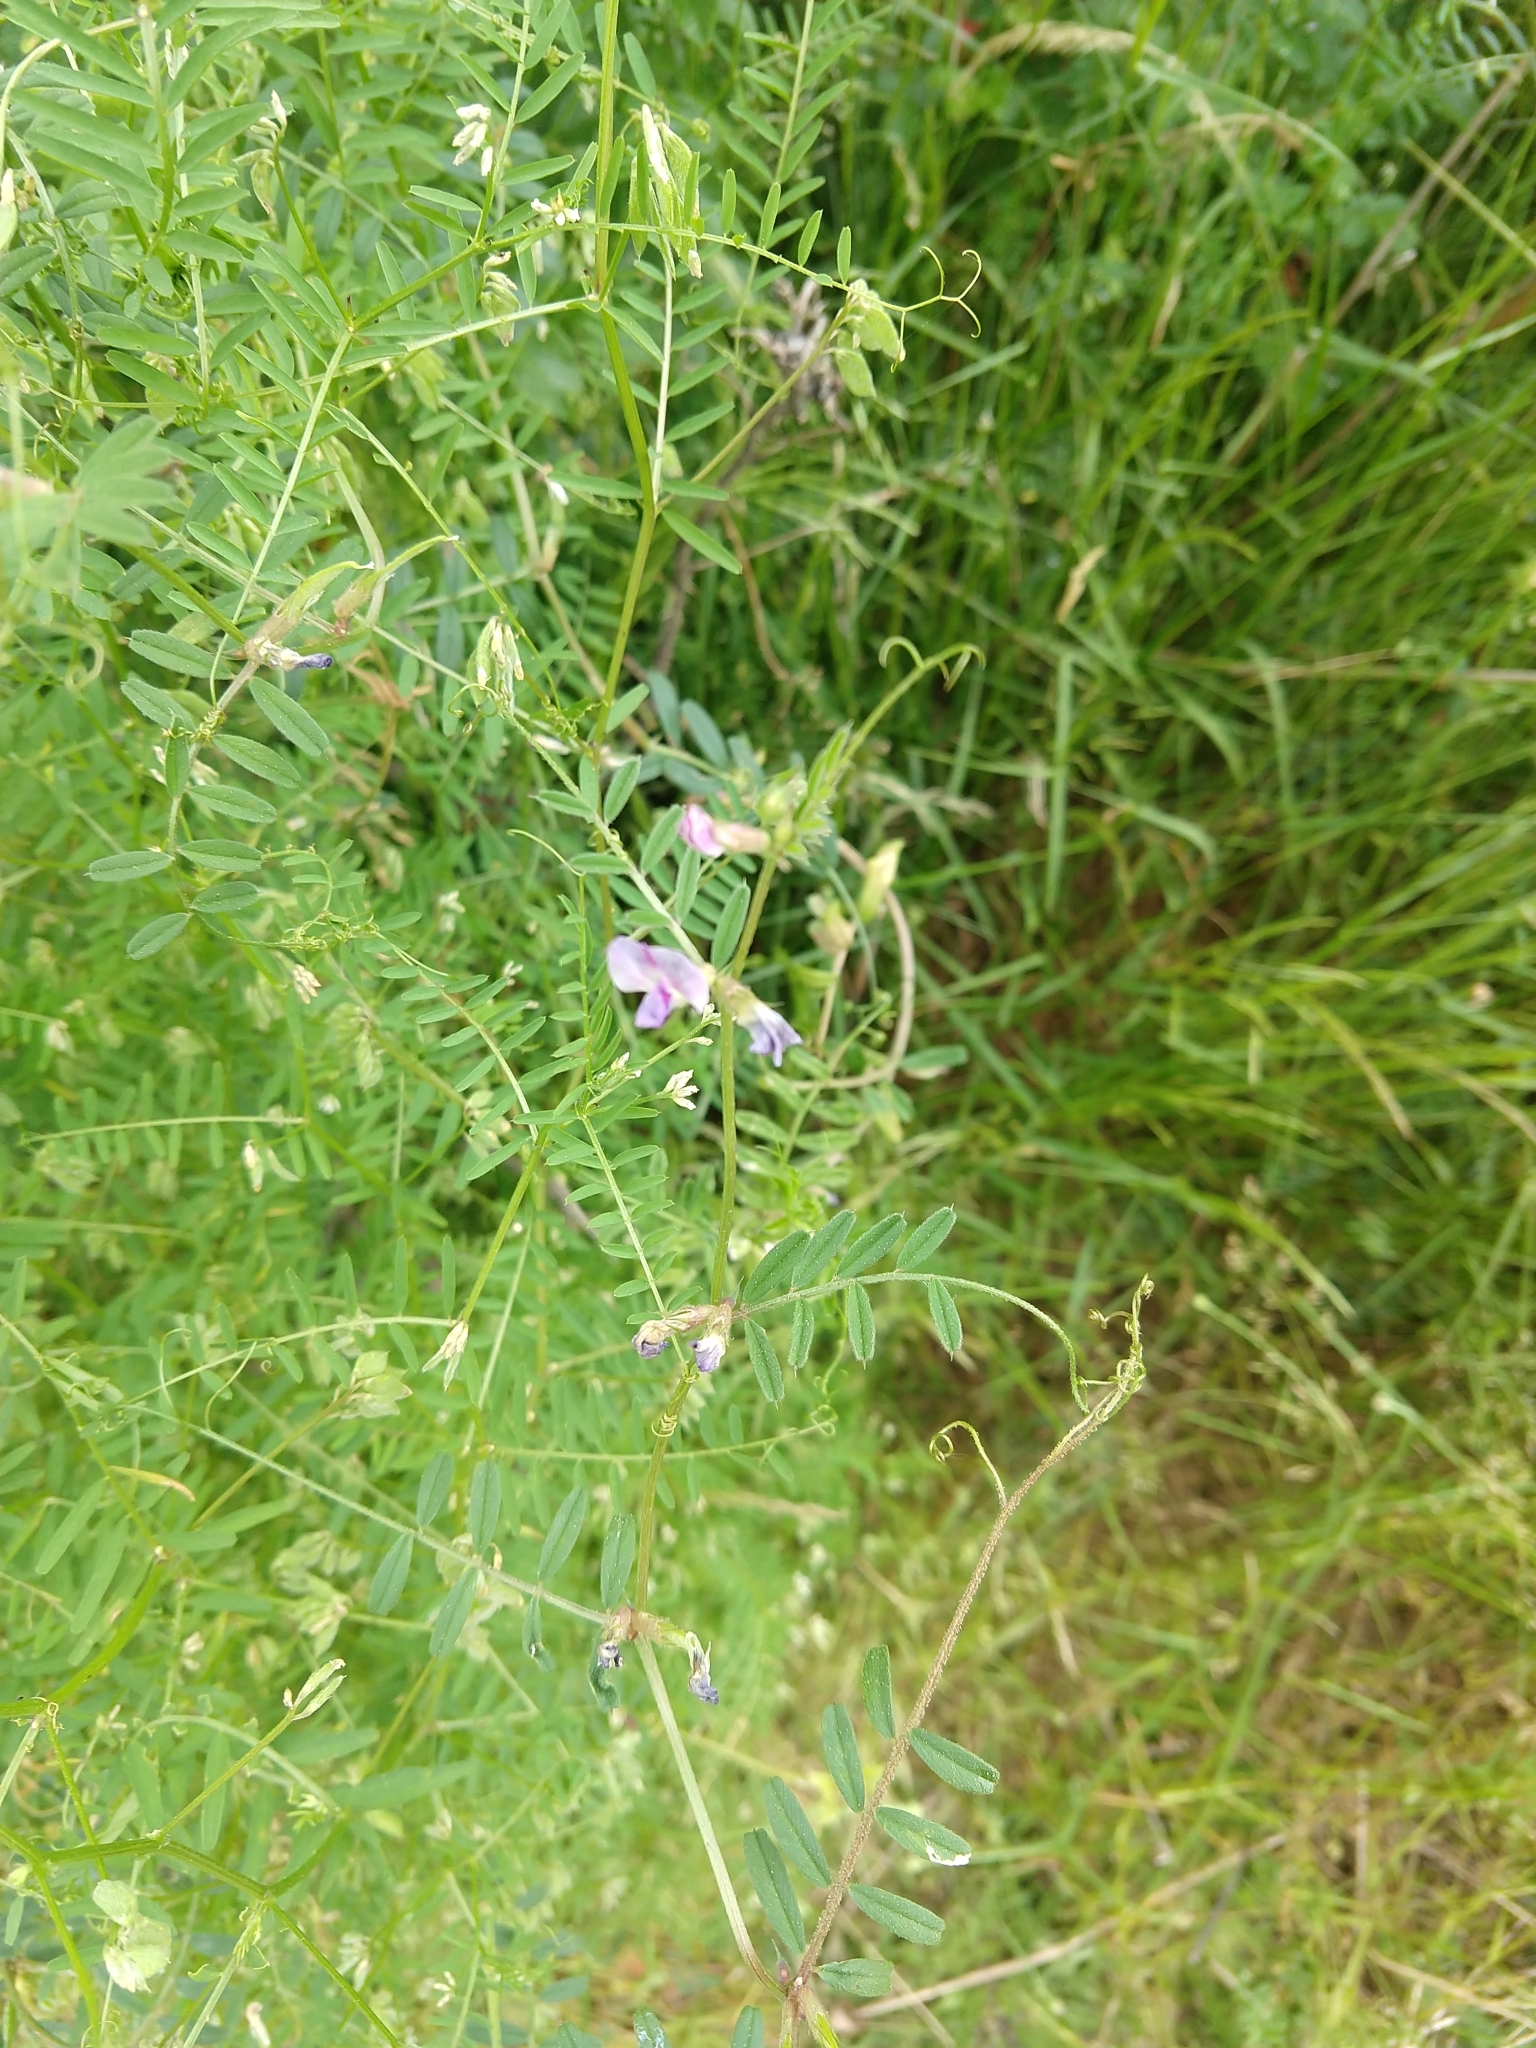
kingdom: Plantae
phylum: Tracheophyta
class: Magnoliopsida
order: Fabales
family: Fabaceae
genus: Vicia
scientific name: Vicia sativa
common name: Garden vetch
